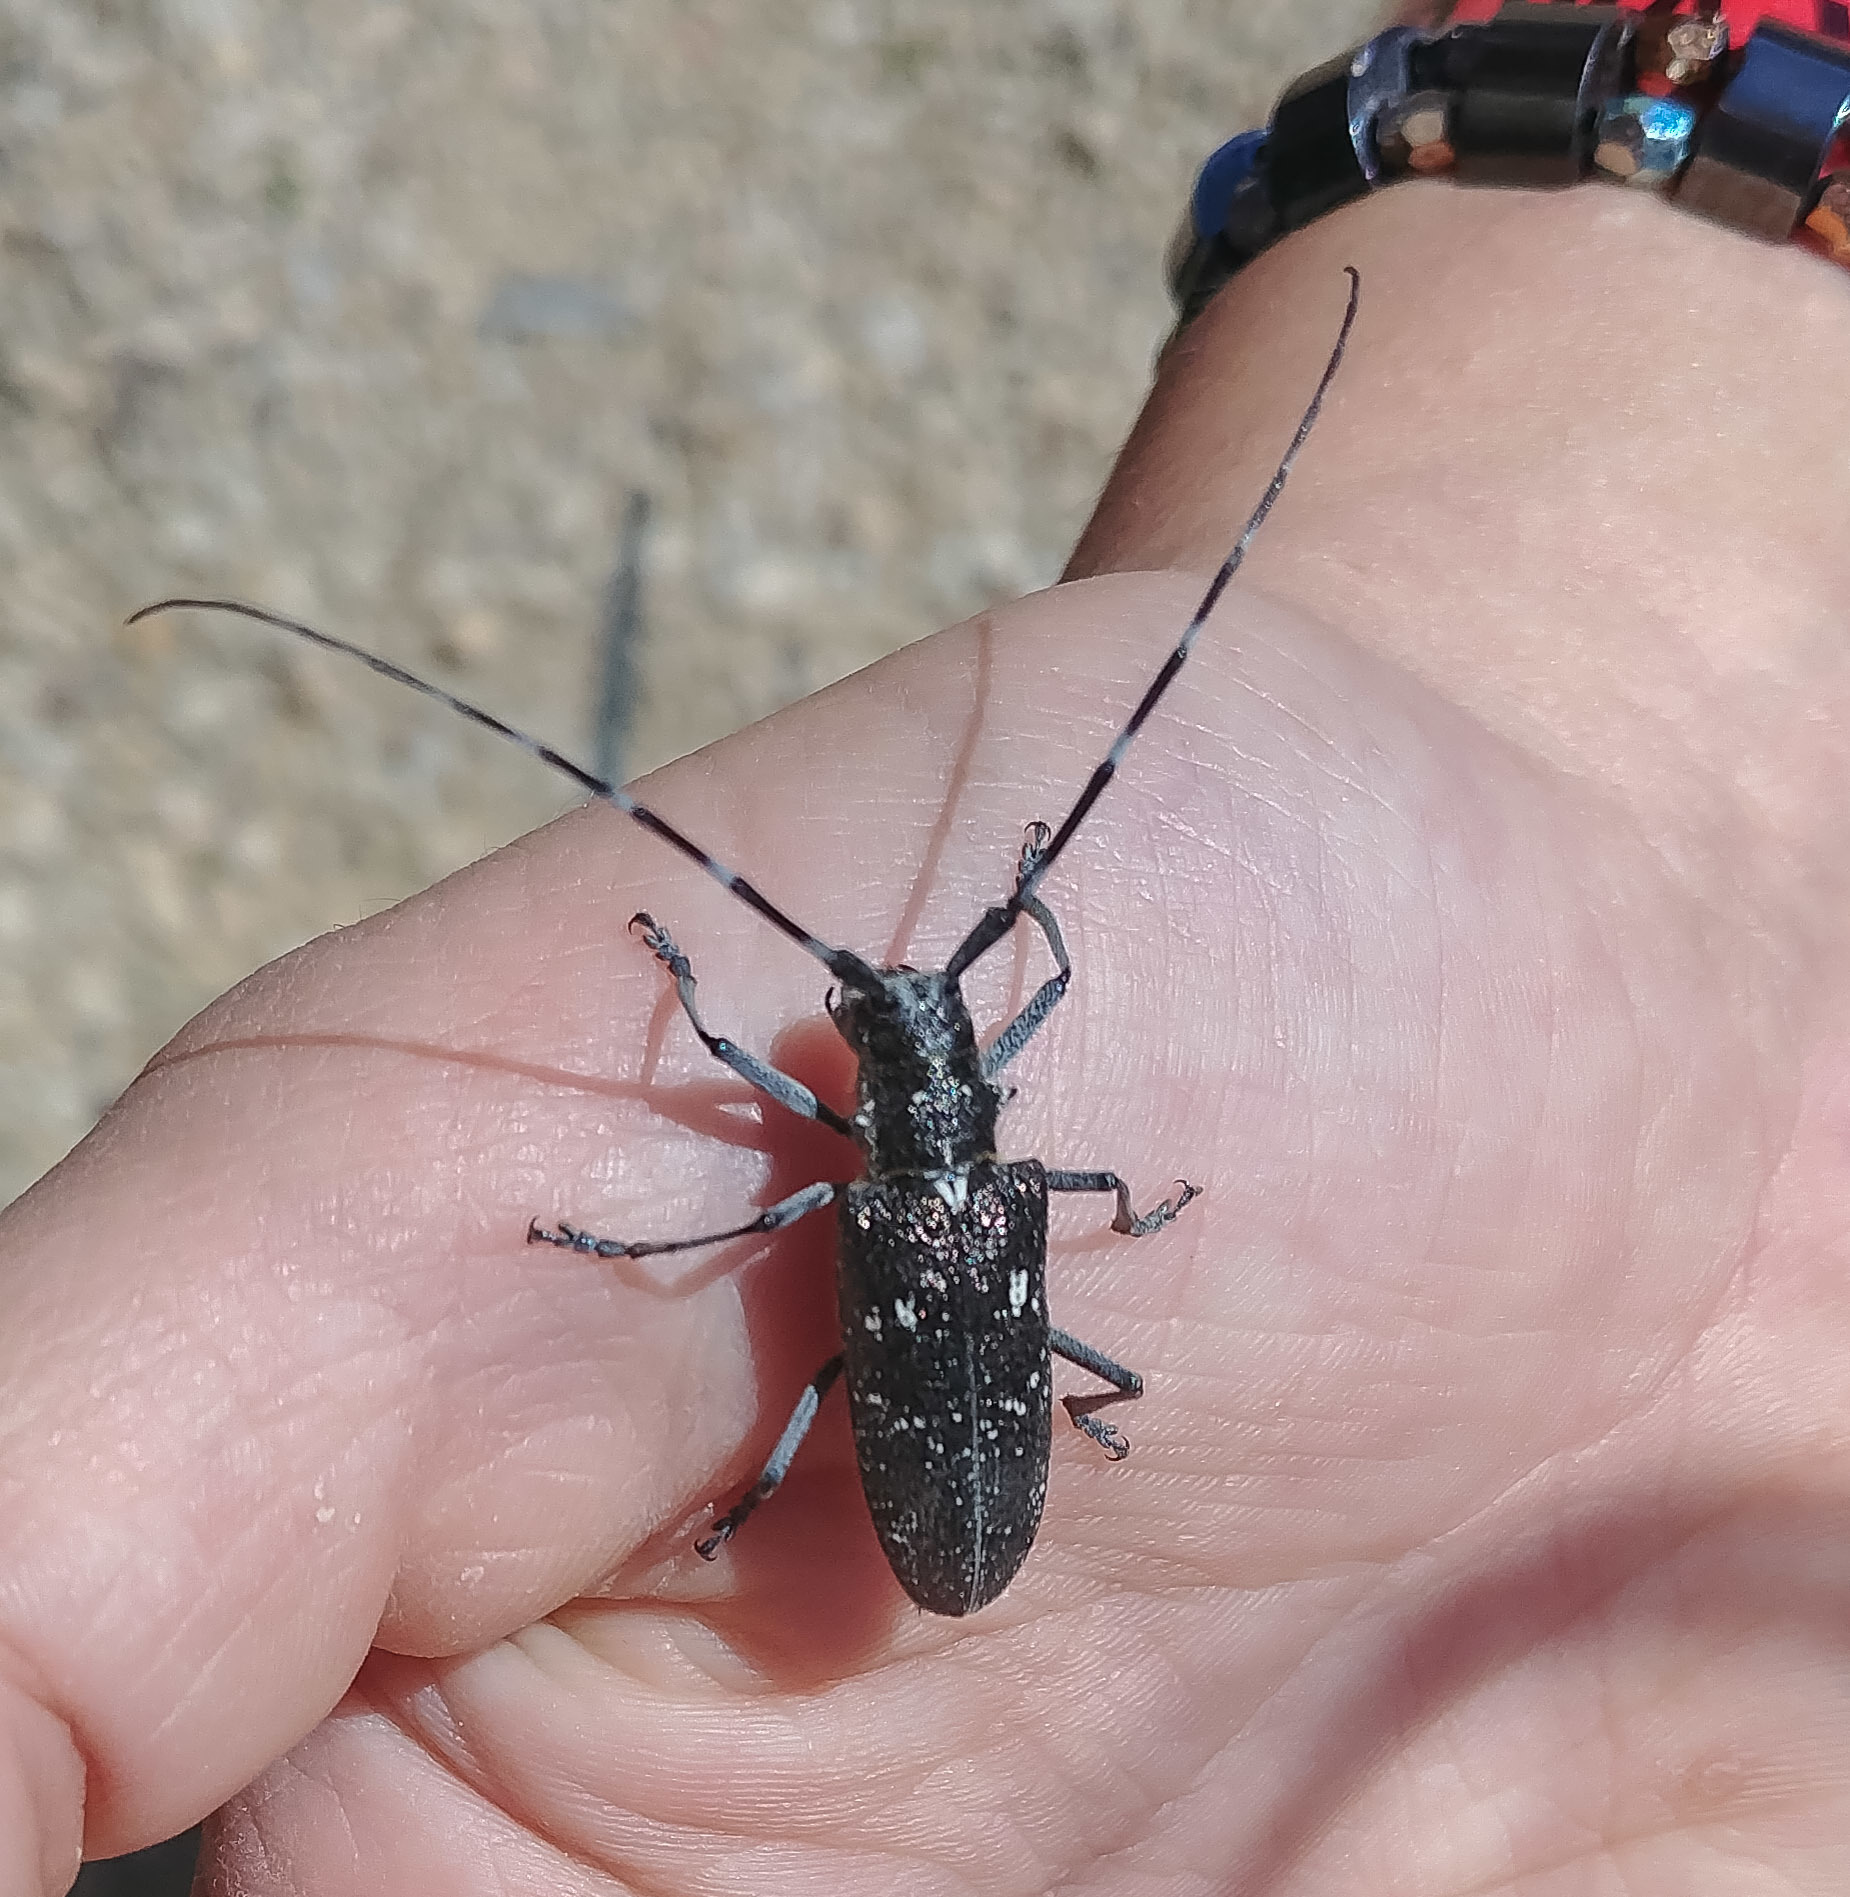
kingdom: Animalia
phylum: Arthropoda
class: Insecta
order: Coleoptera
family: Cerambycidae
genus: Monochamus
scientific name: Monochamus scutellatus
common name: White-spotted sawyer beetle
